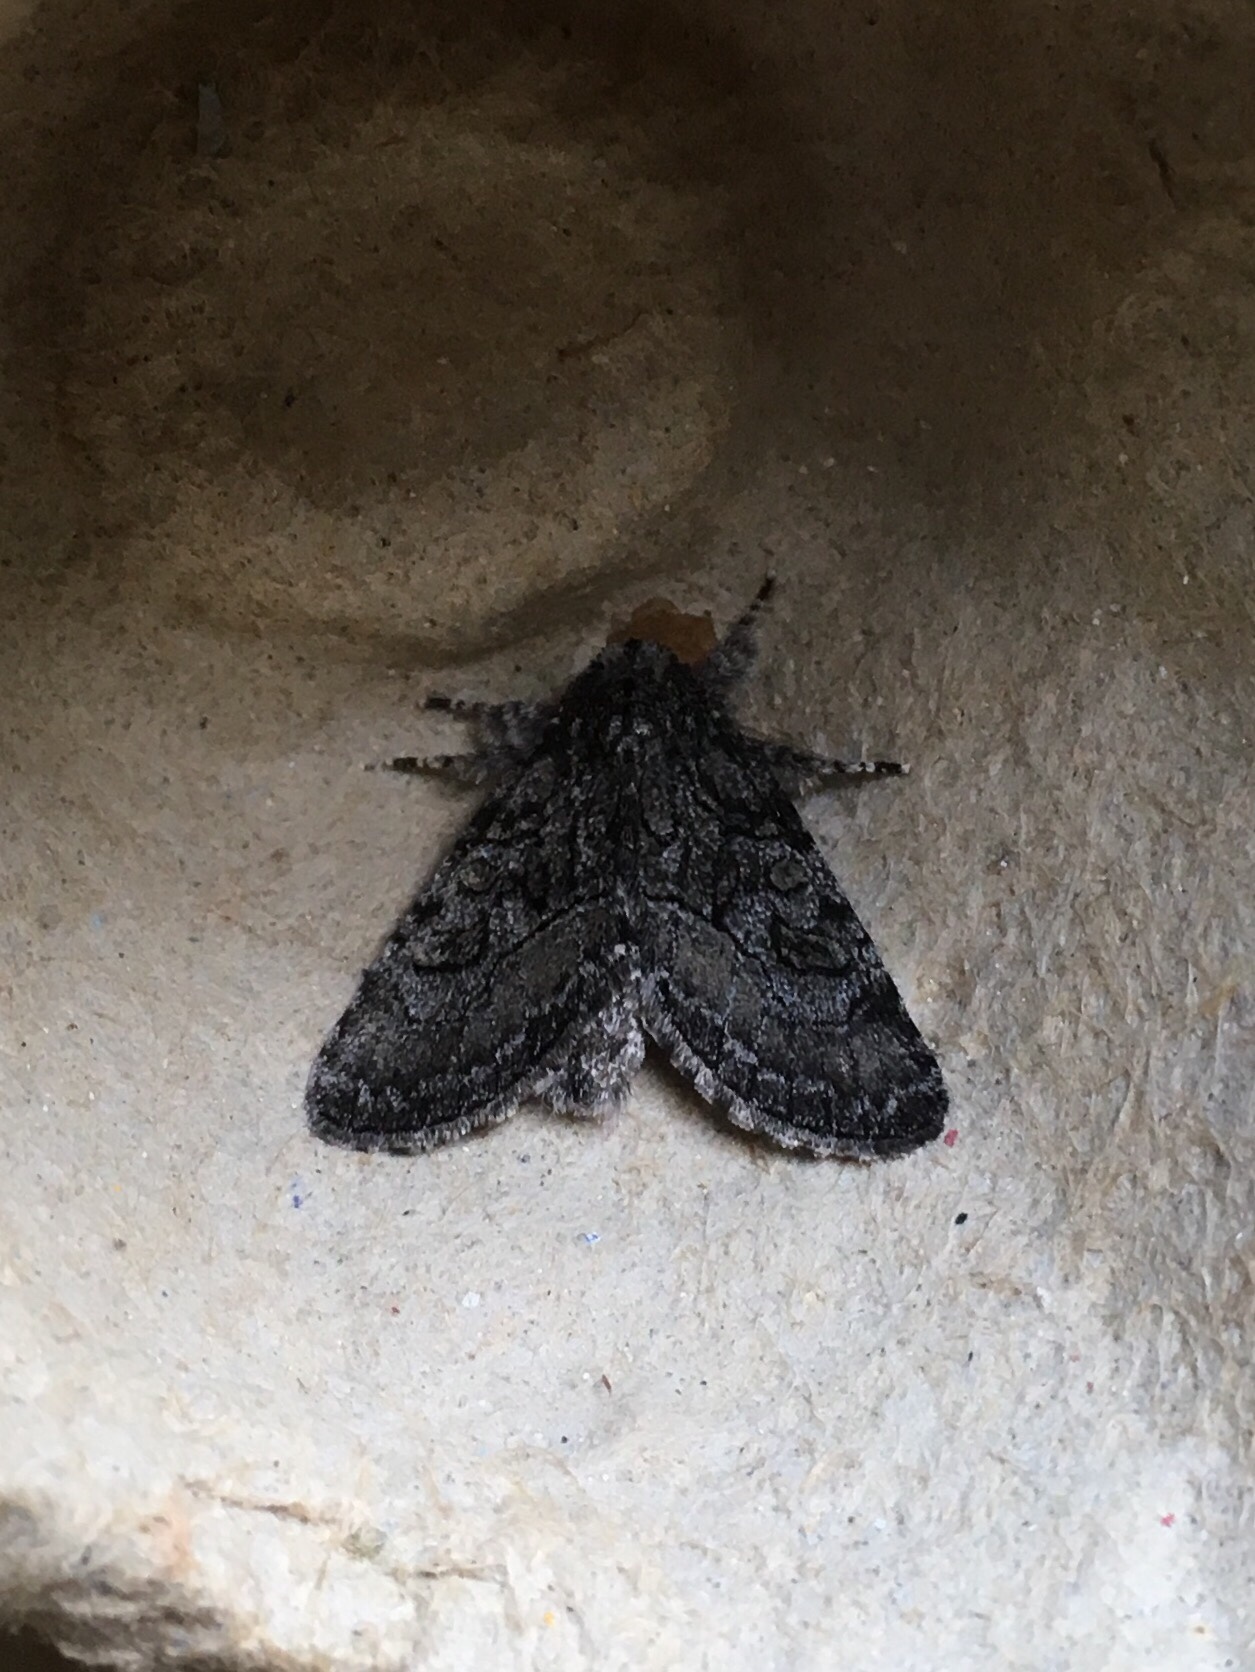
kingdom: Animalia
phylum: Arthropoda
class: Insecta
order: Lepidoptera
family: Noctuidae
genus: Raphia
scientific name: Raphia frater
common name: Brother
